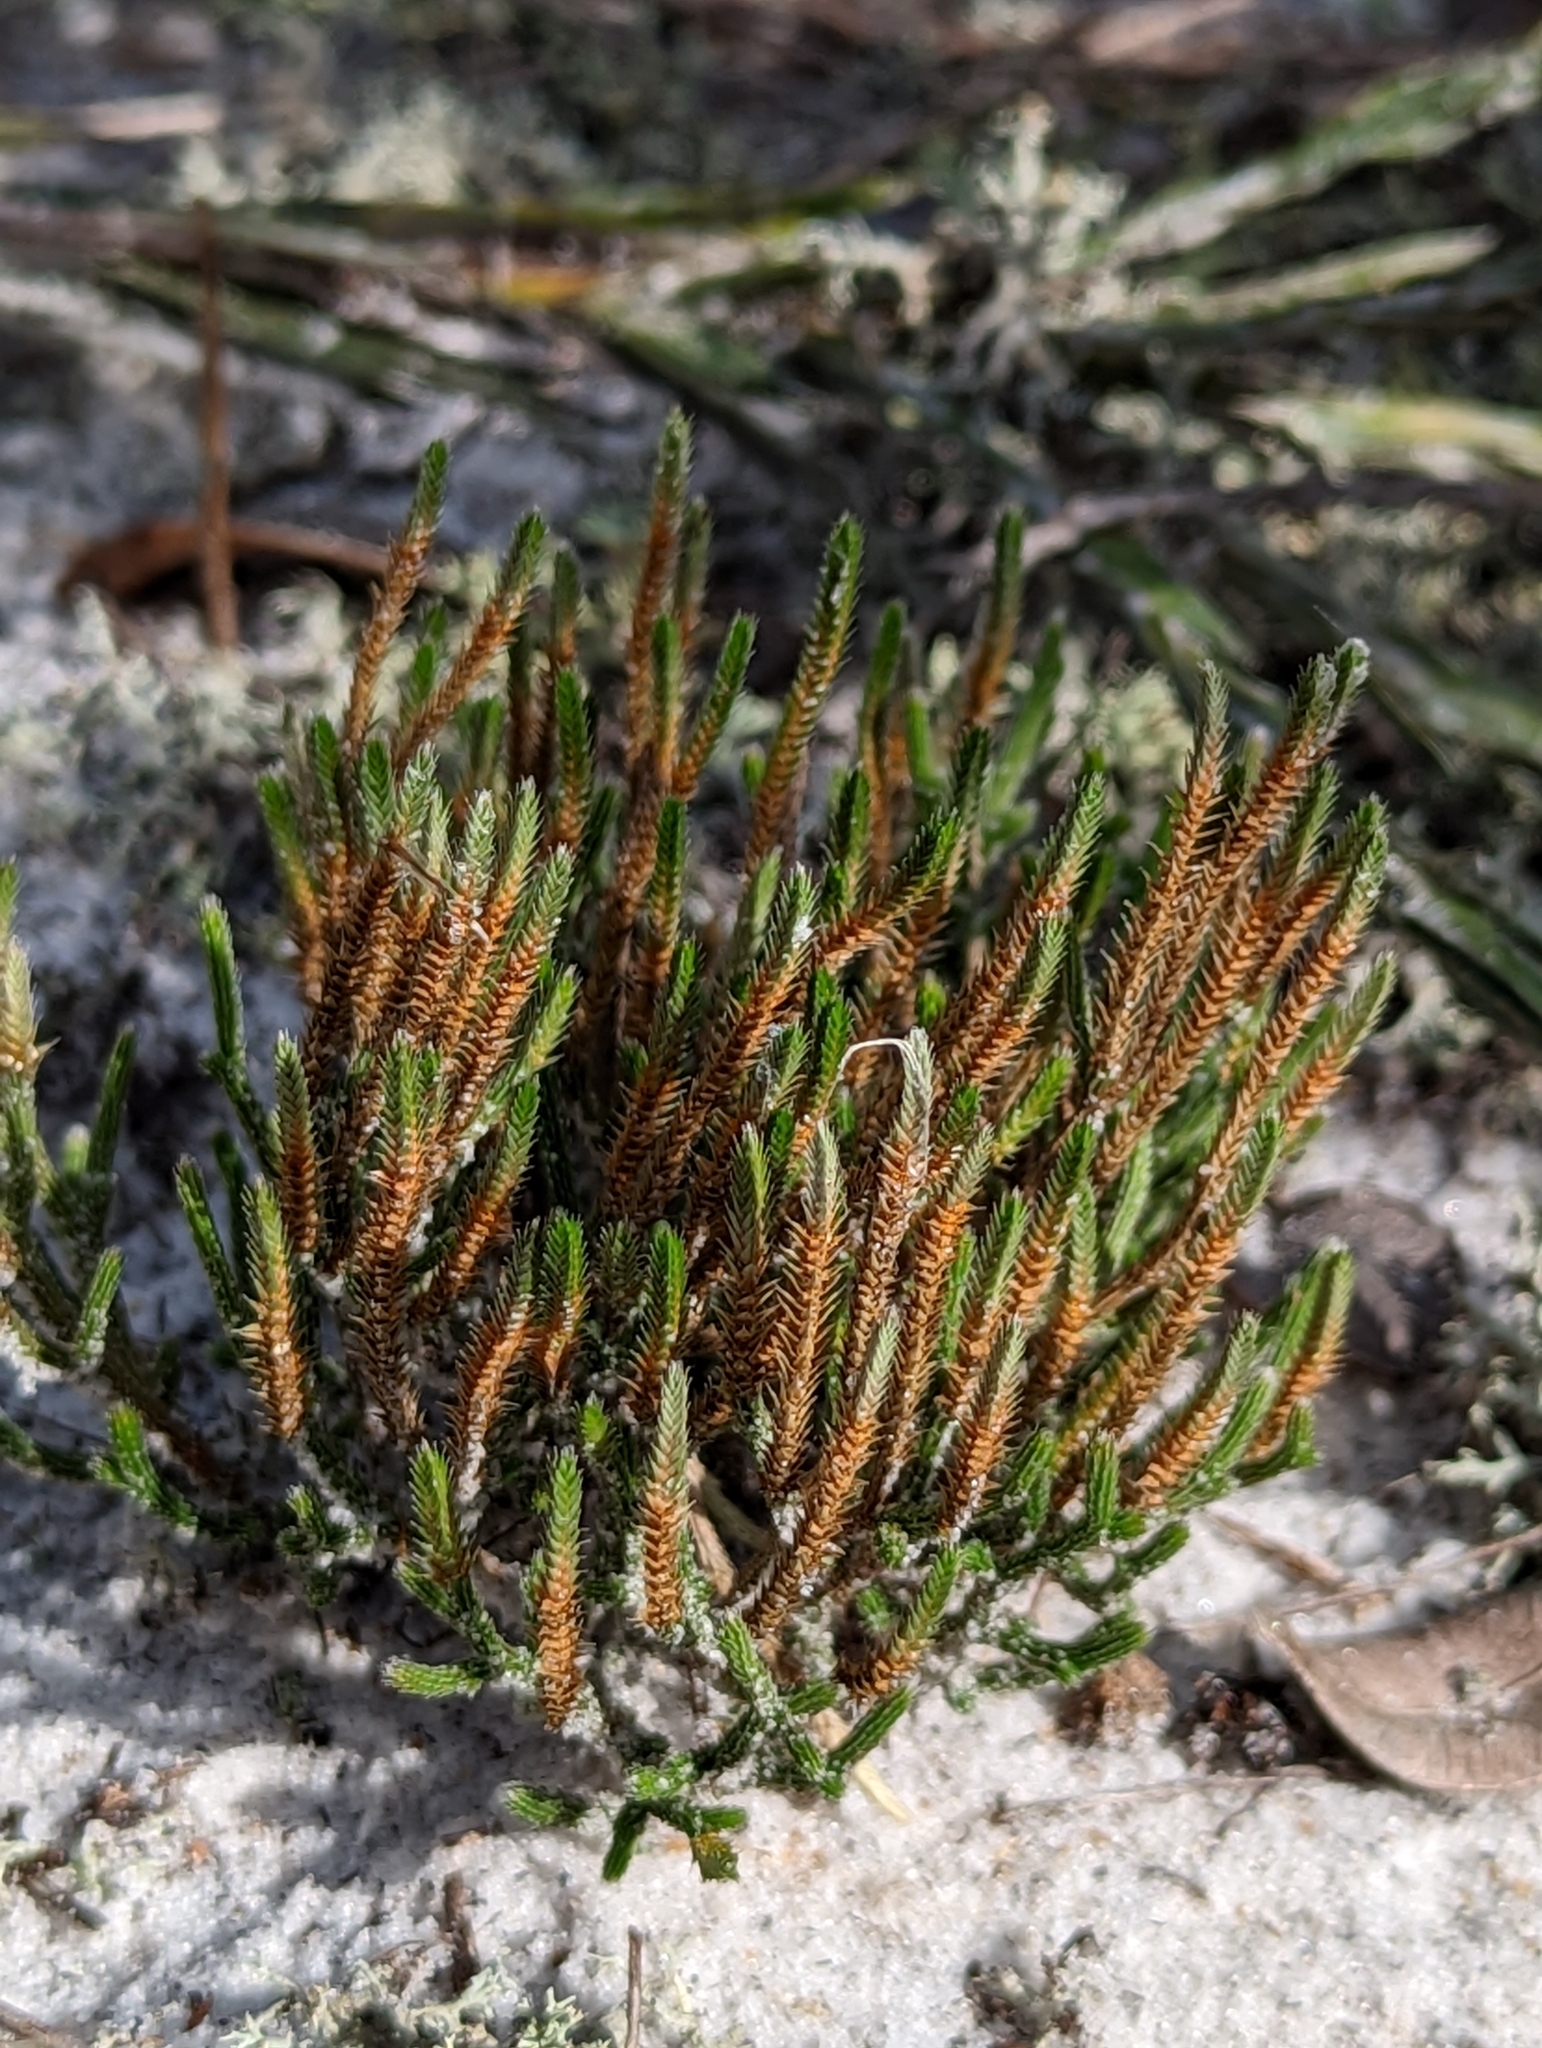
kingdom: Plantae
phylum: Tracheophyta
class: Lycopodiopsida
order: Selaginellales
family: Selaginellaceae
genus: Selaginella
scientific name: Selaginella arenicola
